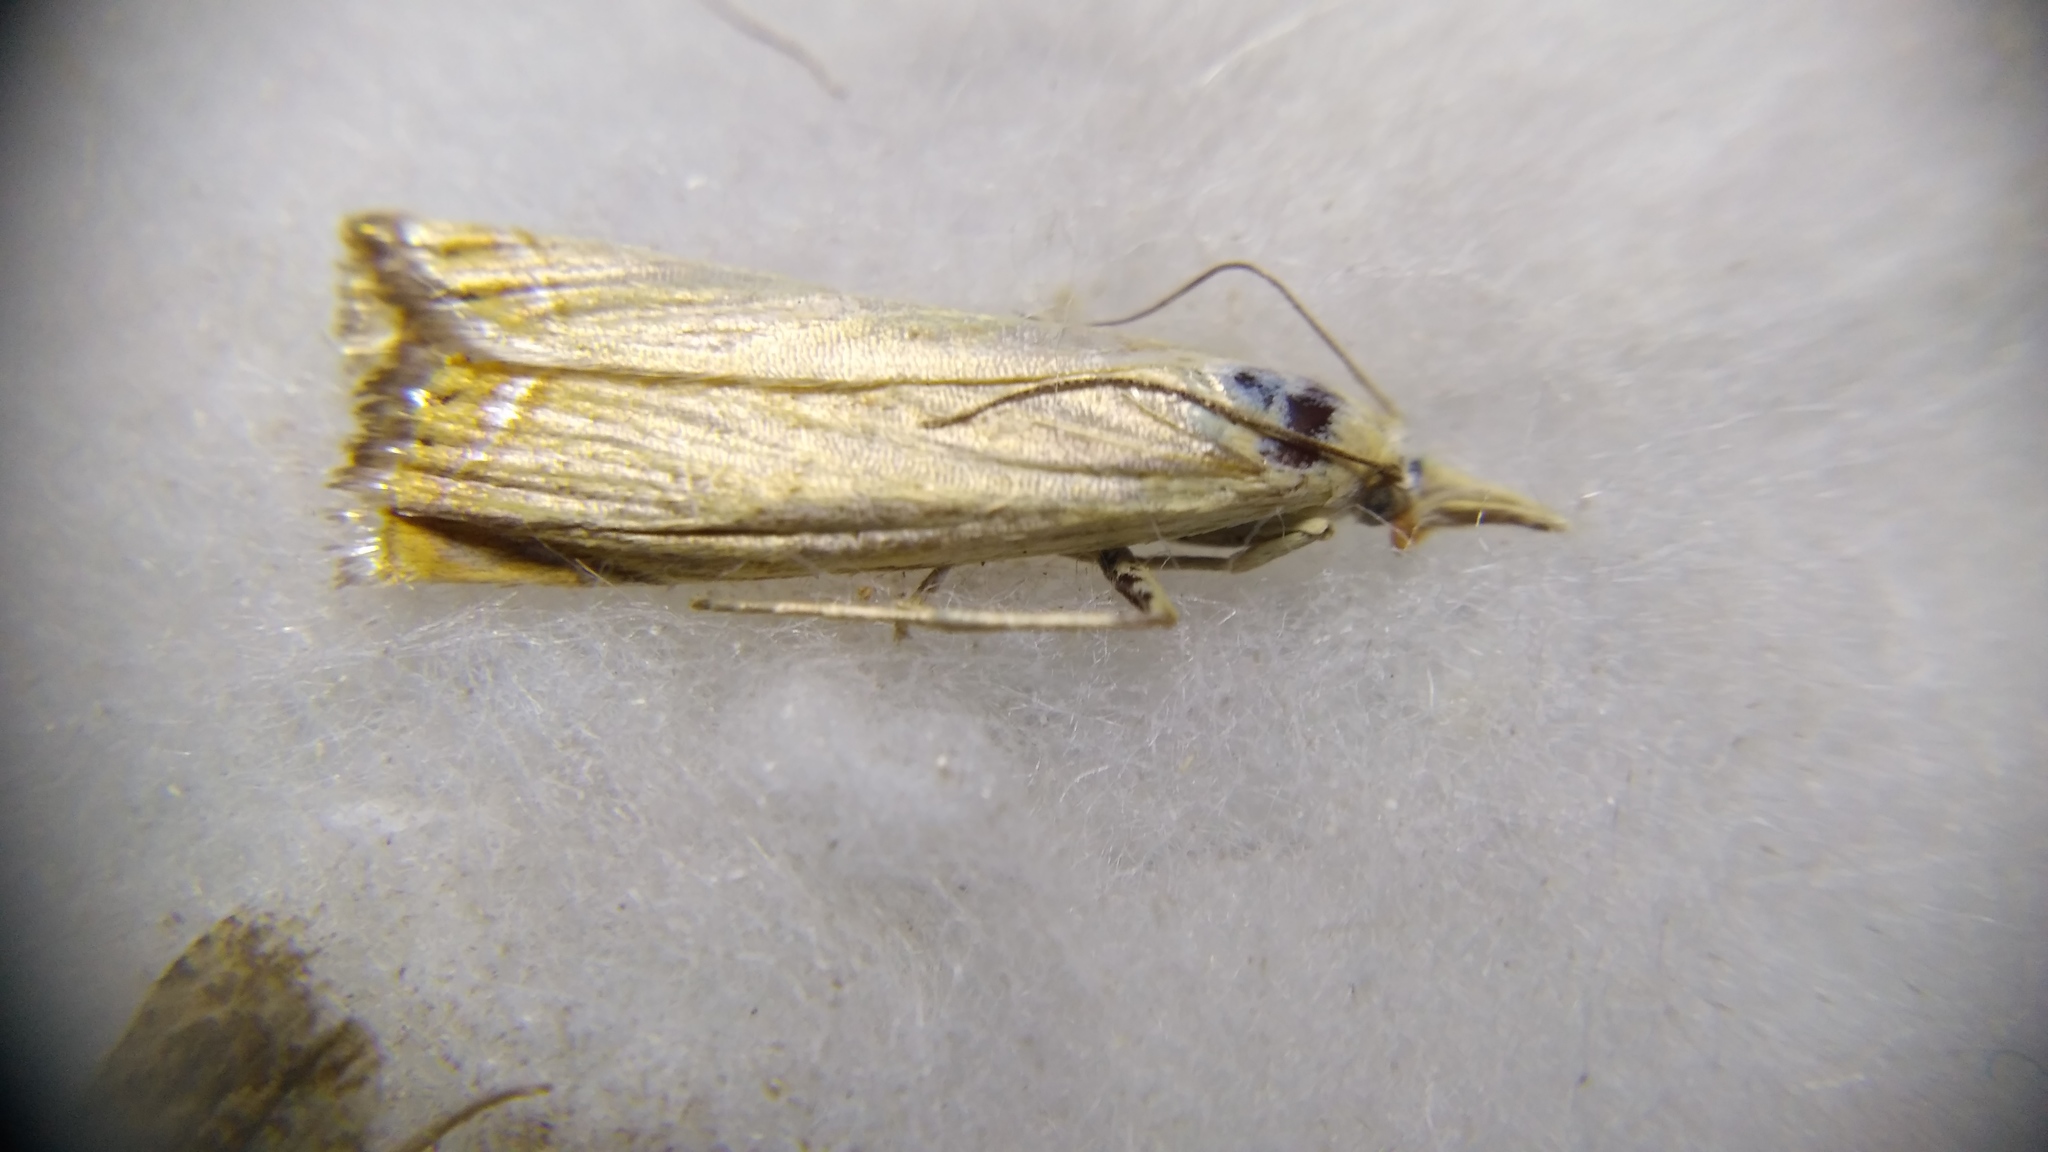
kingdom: Animalia
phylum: Arthropoda
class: Insecta
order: Lepidoptera
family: Crambidae
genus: Chrysoteuchia
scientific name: Chrysoteuchia culmella
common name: Garden grass-veneer
